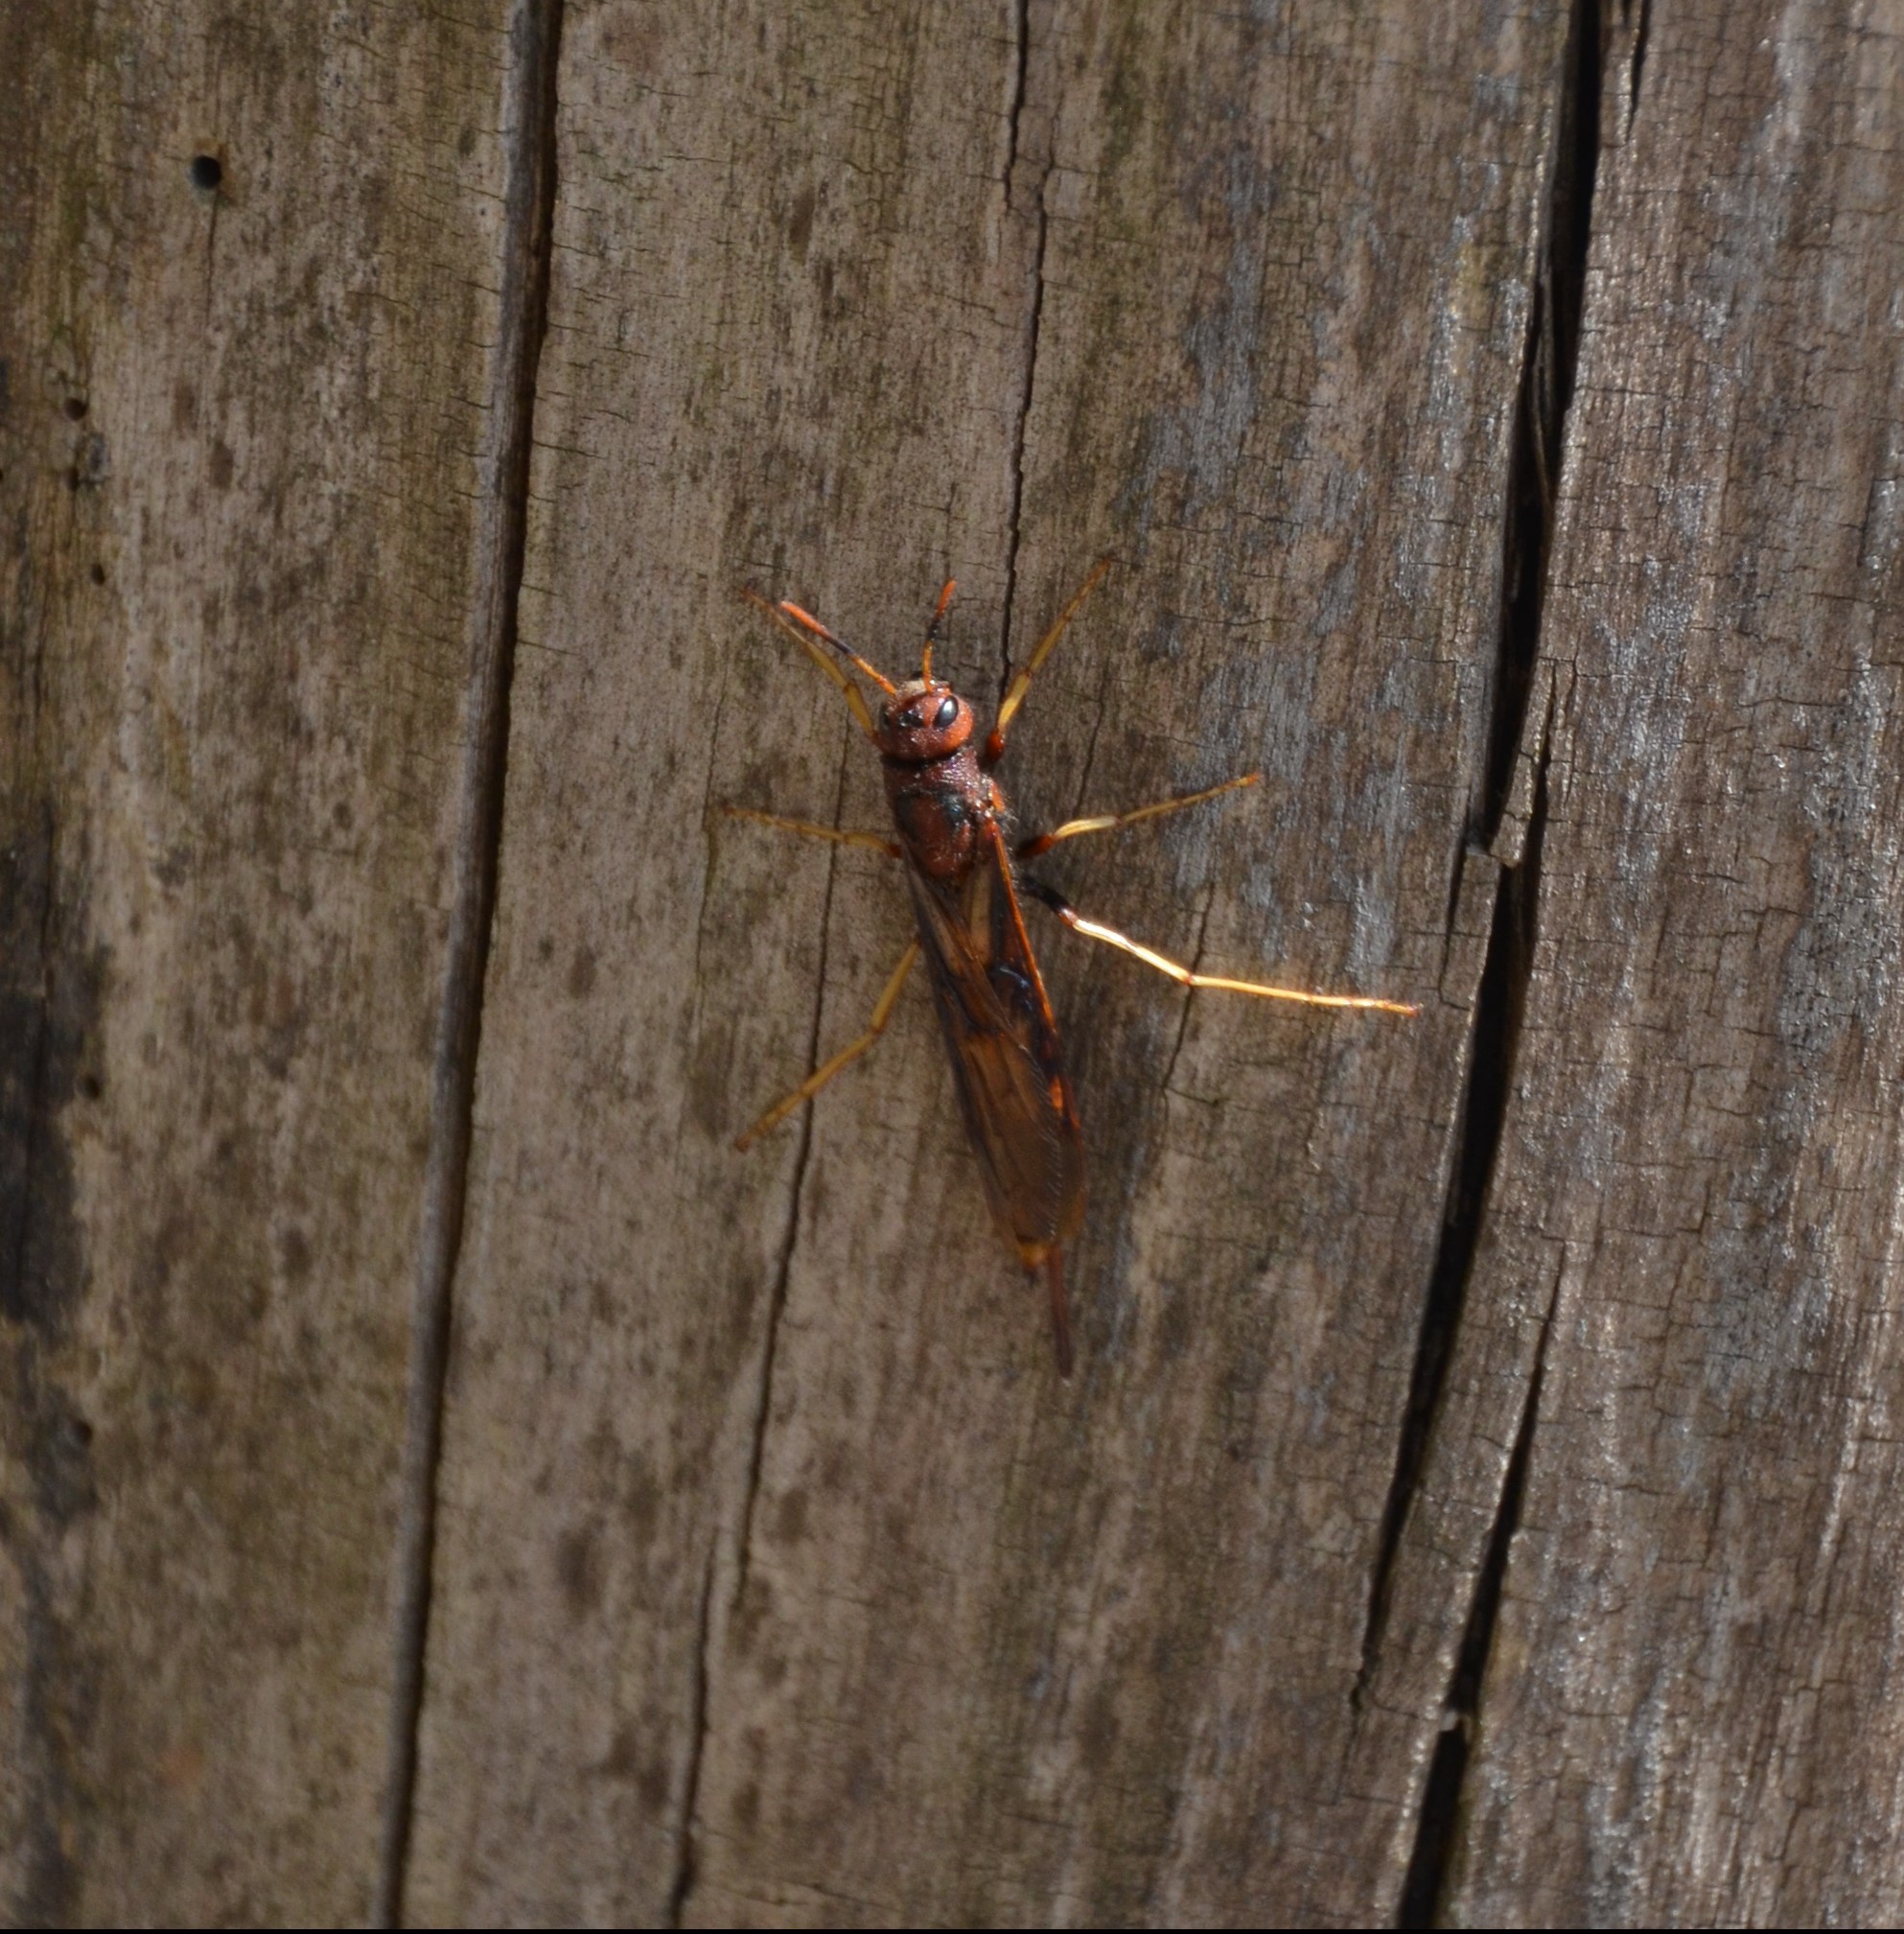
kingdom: Animalia
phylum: Arthropoda
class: Insecta
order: Hymenoptera
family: Siricidae
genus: Tremex
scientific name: Tremex columba
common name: Wasp
